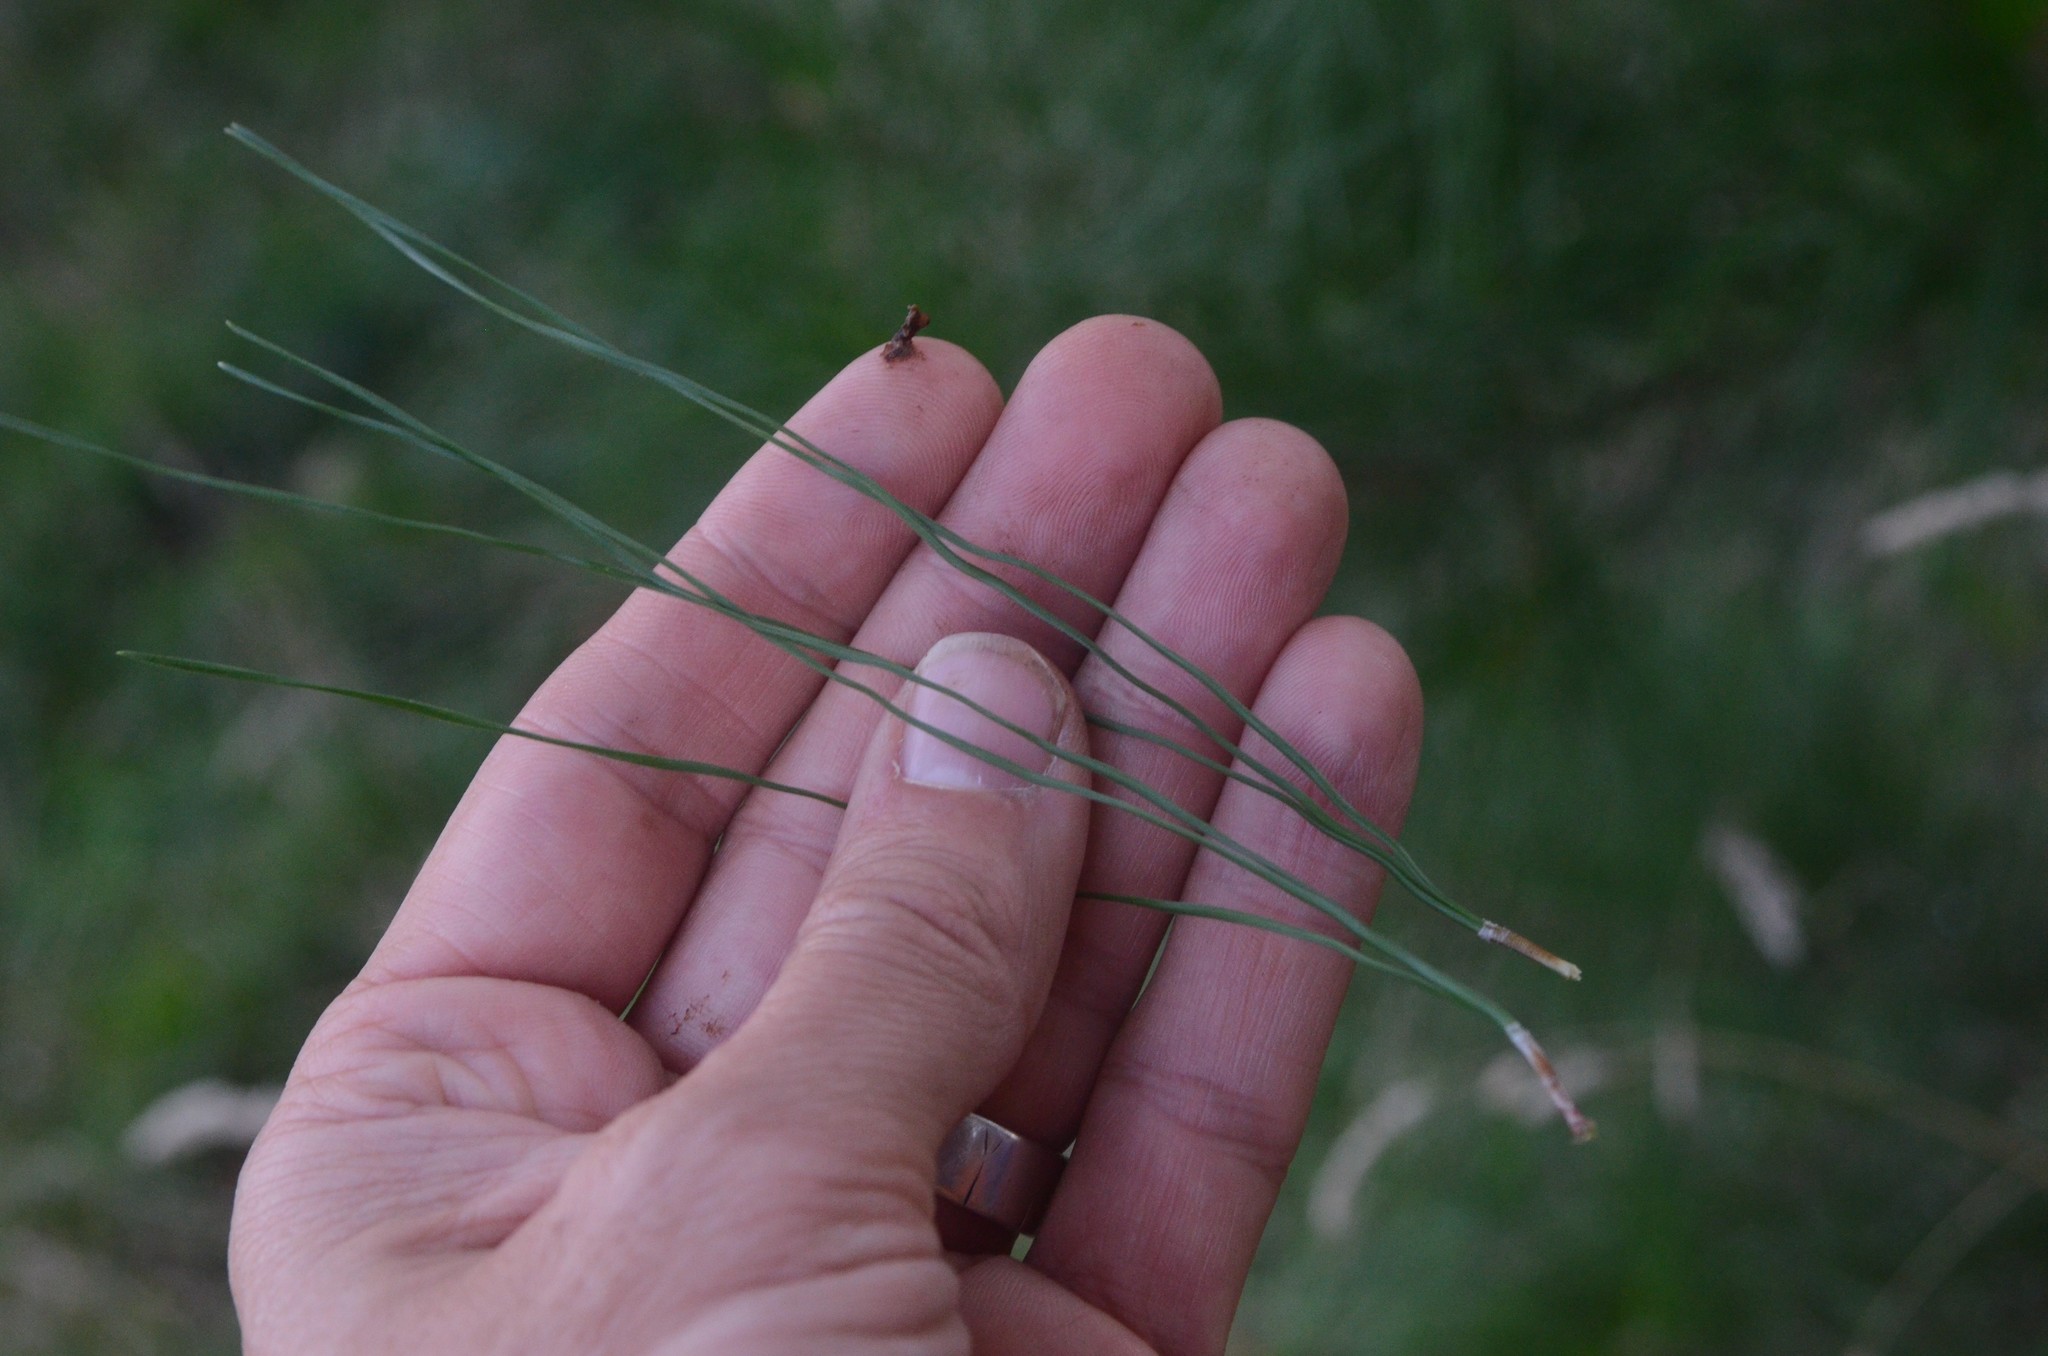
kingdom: Plantae
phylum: Tracheophyta
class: Pinopsida
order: Pinales
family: Pinaceae
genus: Pinus
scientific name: Pinus radiata
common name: Monterey pine
